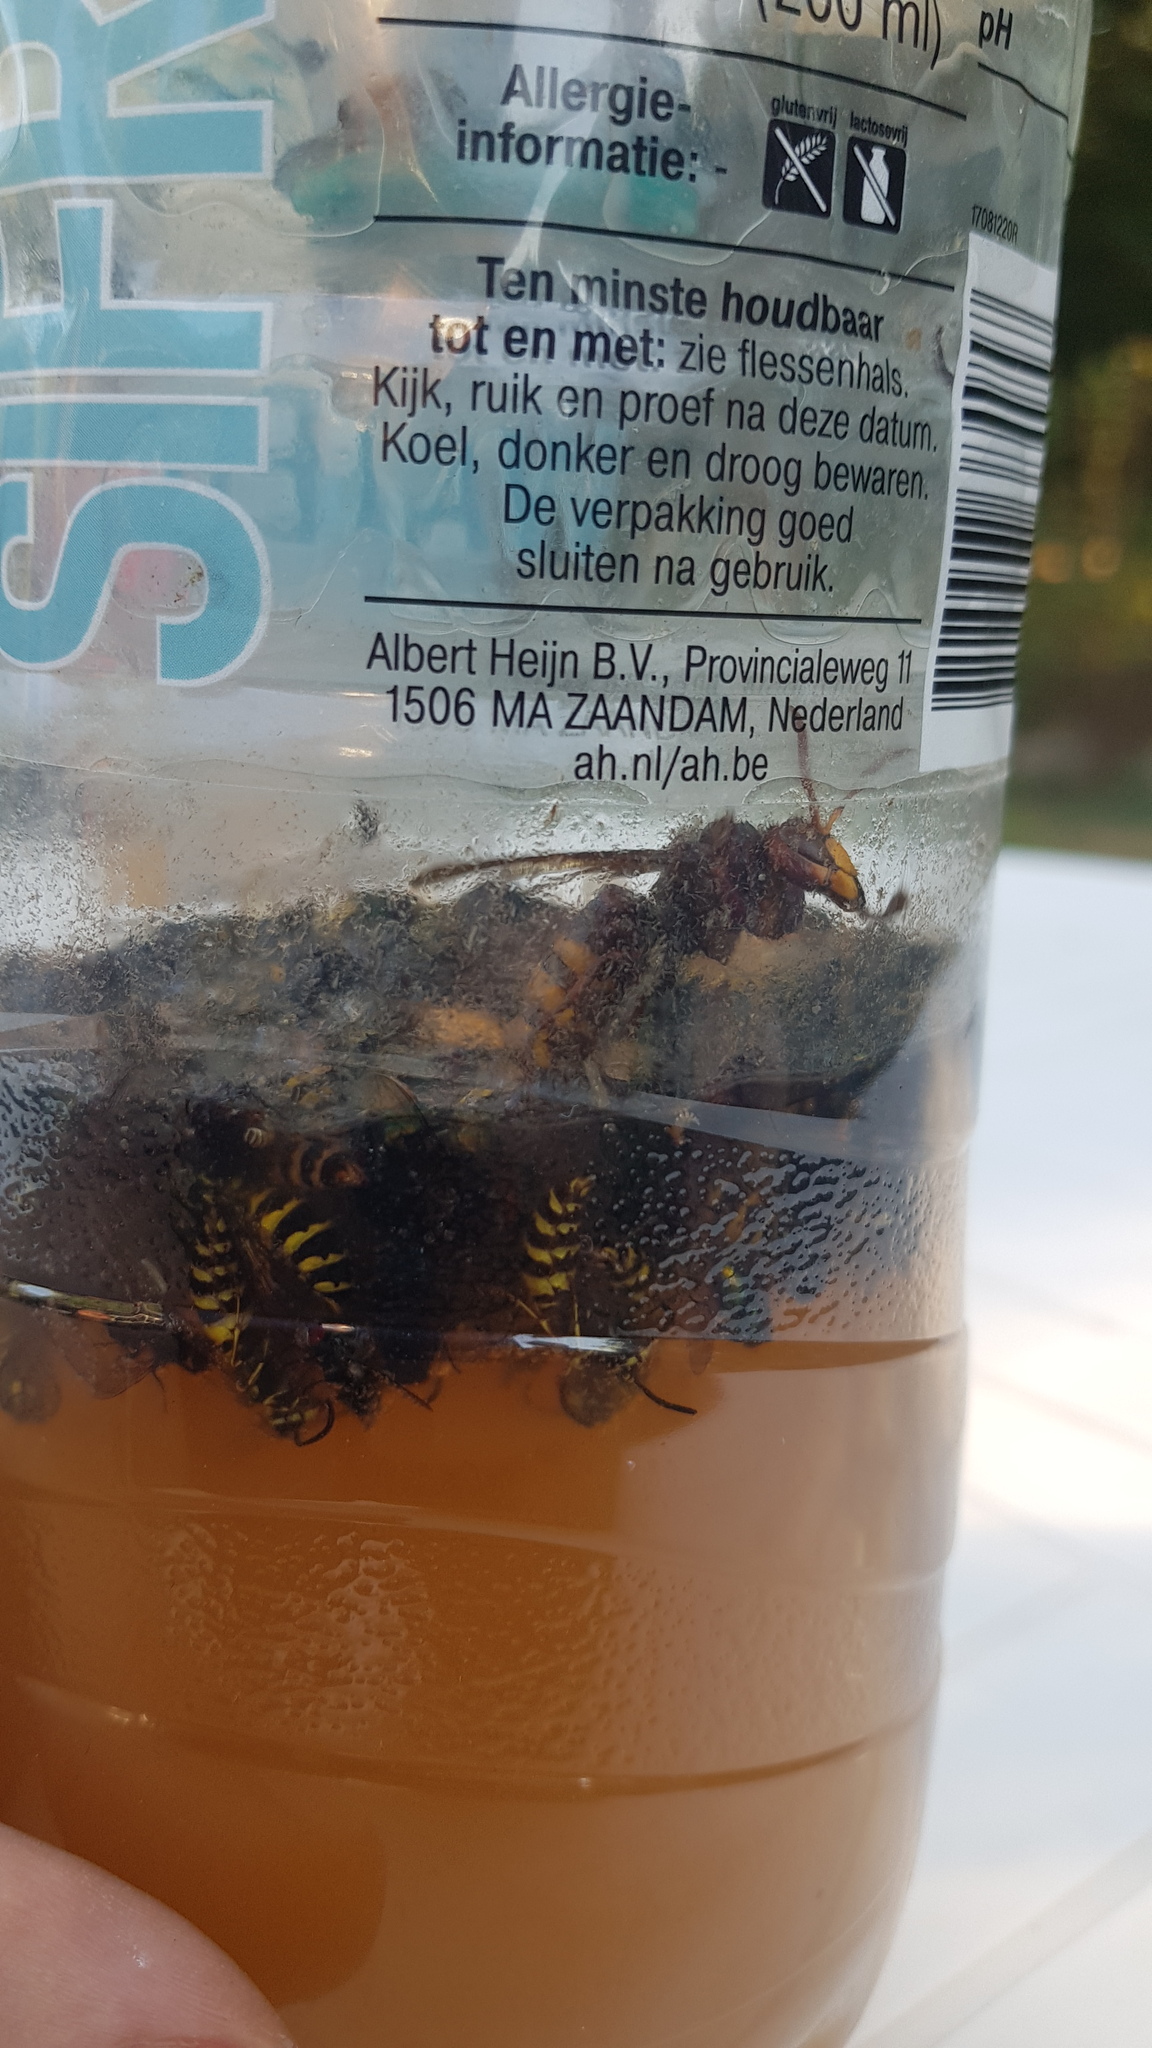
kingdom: Animalia
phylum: Arthropoda
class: Insecta
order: Hymenoptera
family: Vespidae
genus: Vespa
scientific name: Vespa crabro
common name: Hornet
